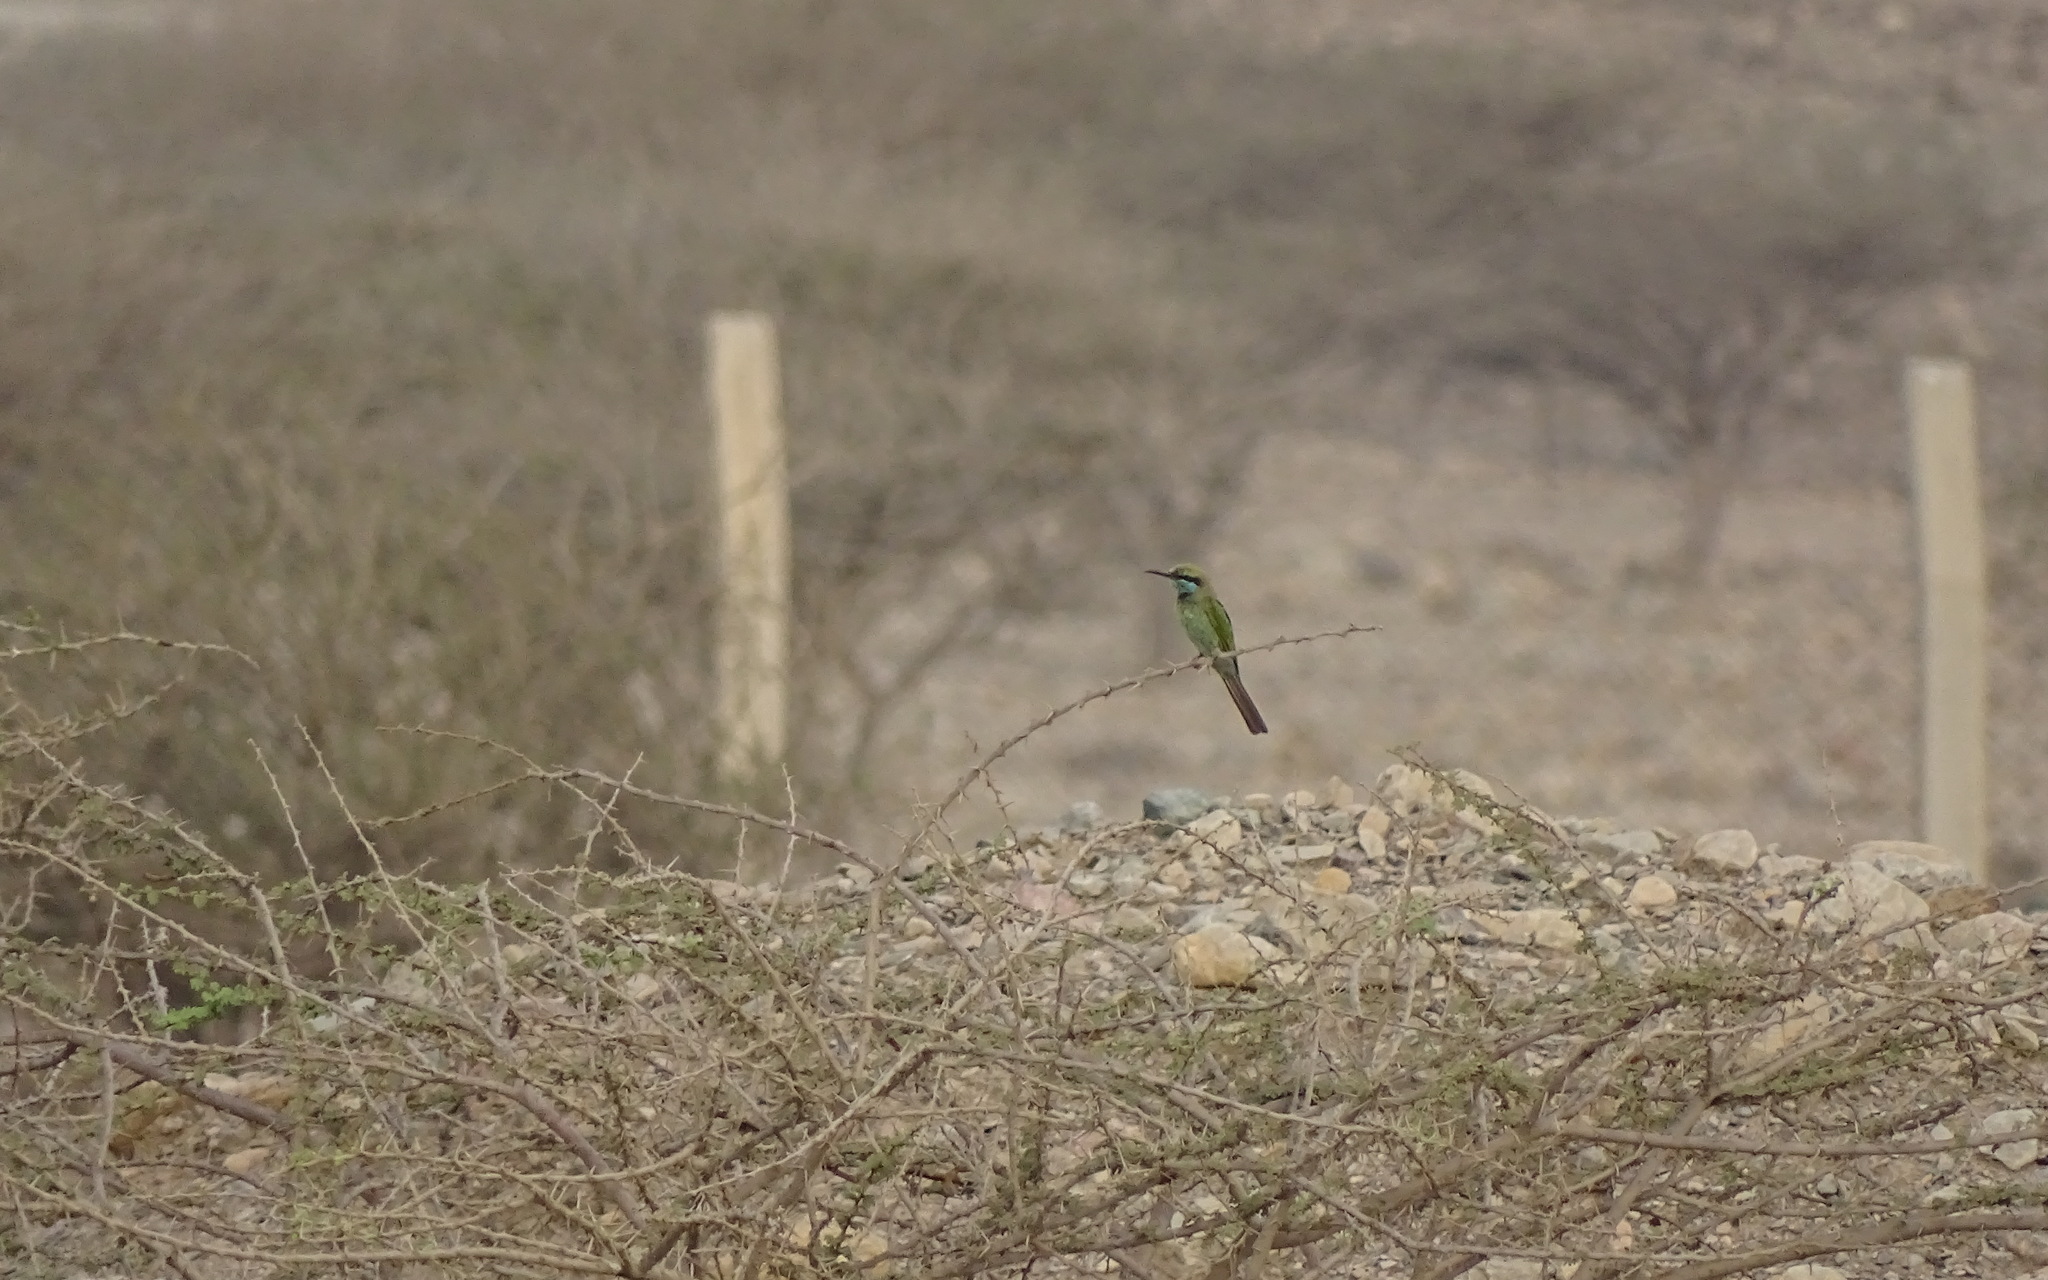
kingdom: Animalia
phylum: Chordata
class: Aves
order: Coraciiformes
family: Meropidae
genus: Merops
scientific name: Merops cyanophrys
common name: Arabian green bee-eater
